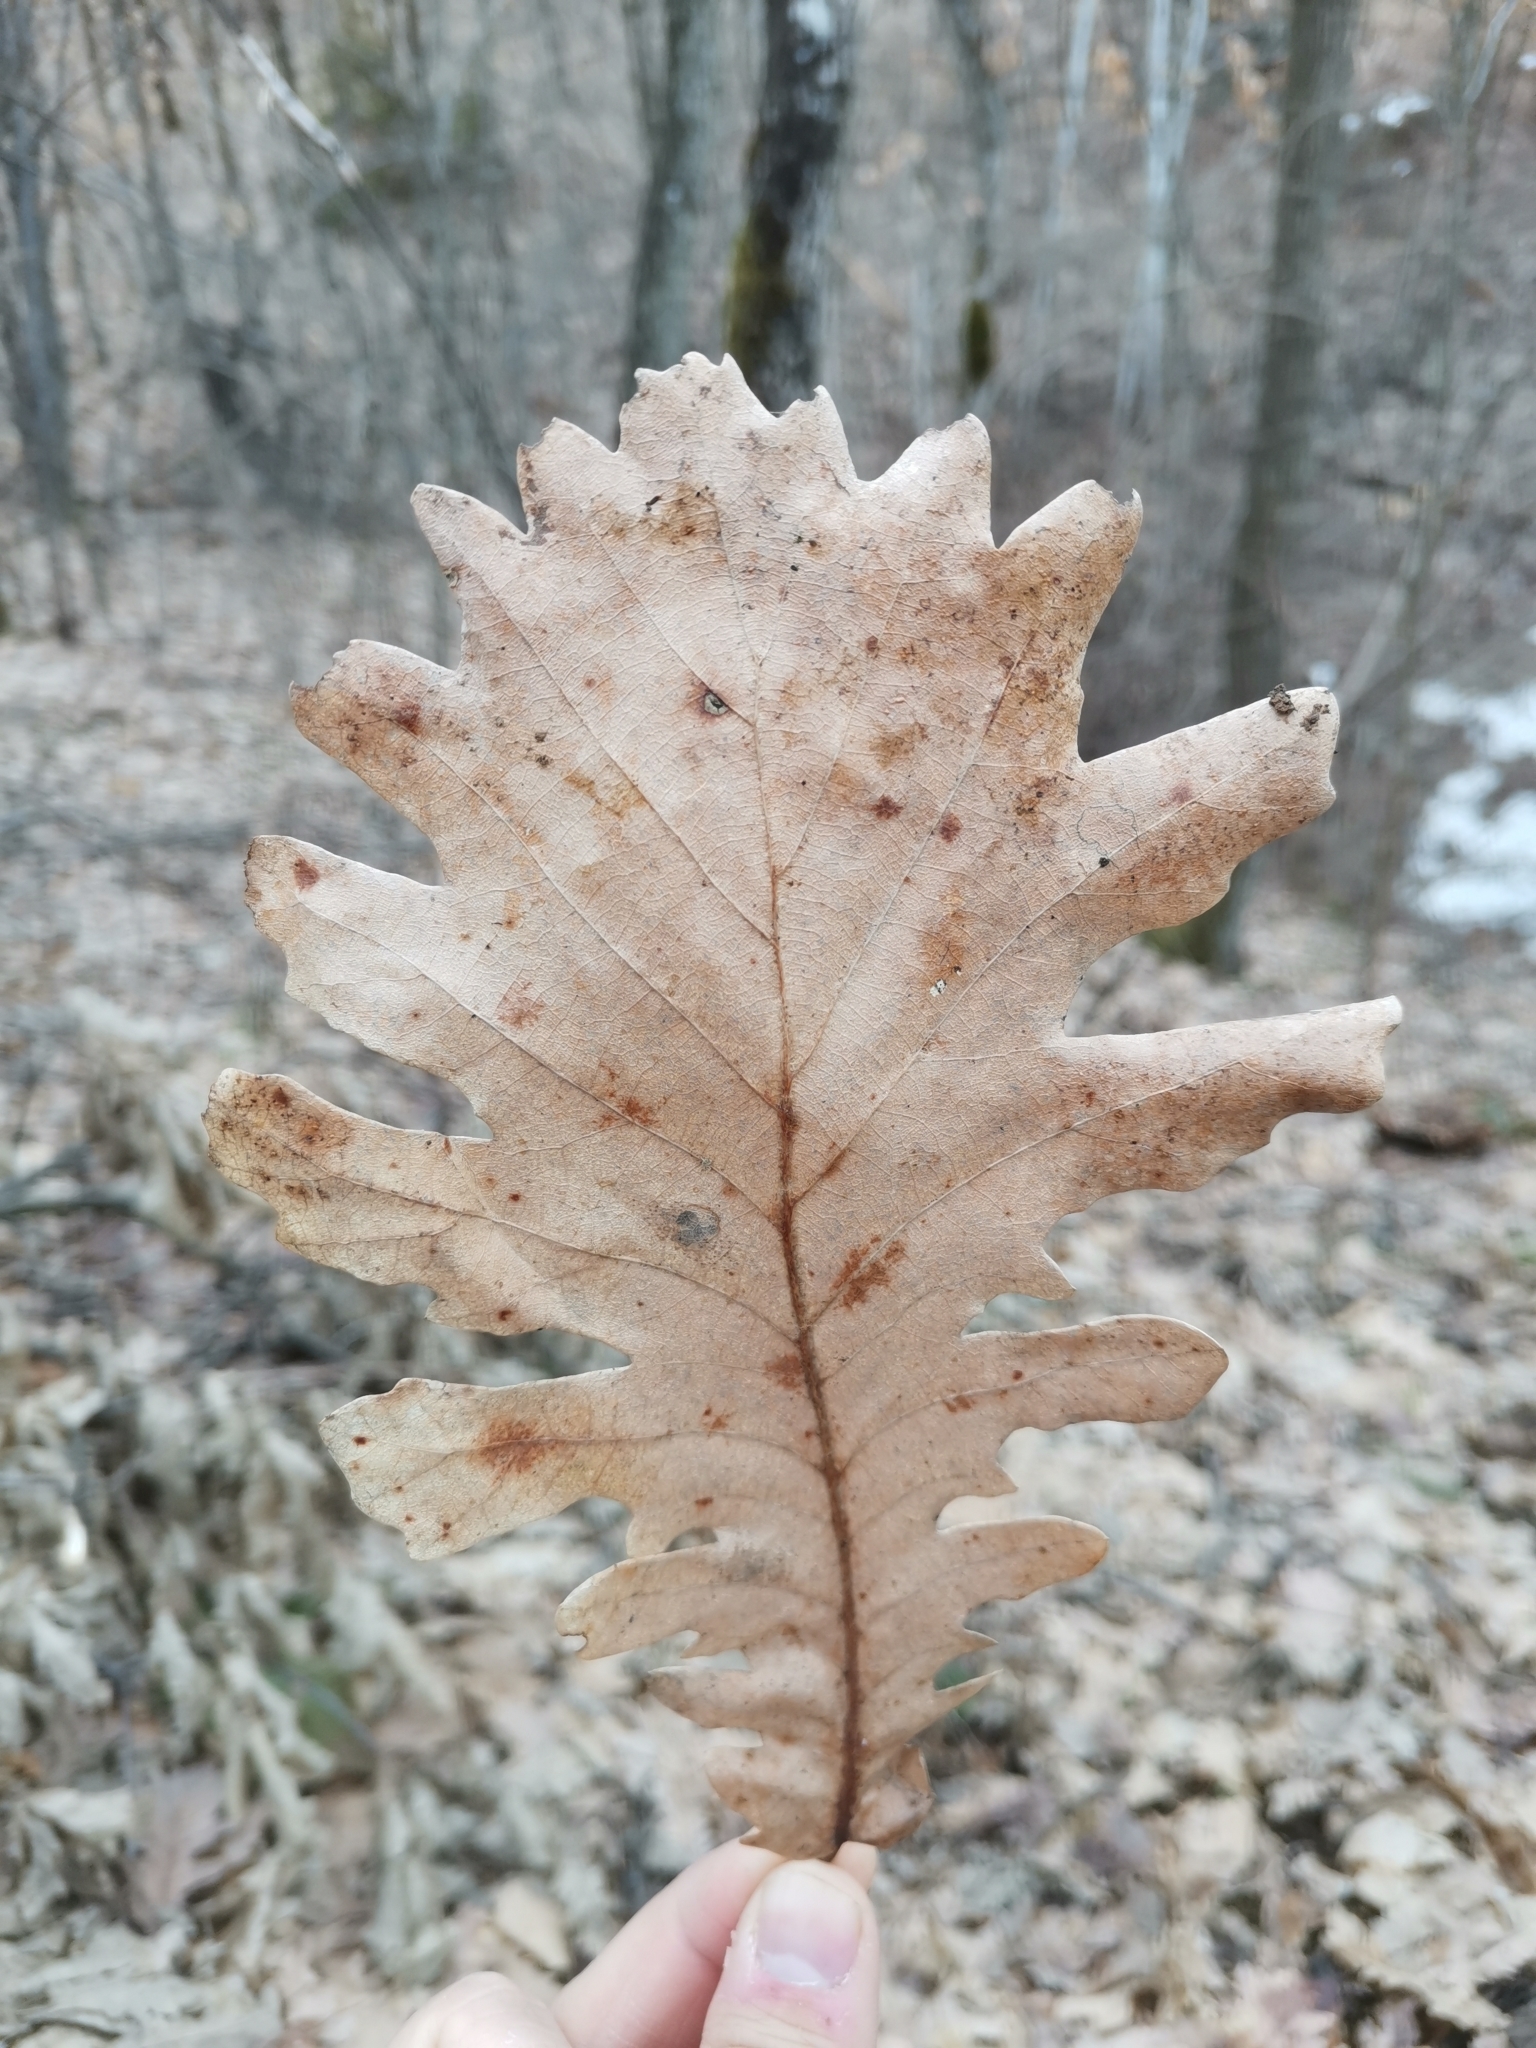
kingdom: Plantae
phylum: Tracheophyta
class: Magnoliopsida
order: Fagales
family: Fagaceae
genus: Quercus
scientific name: Quercus conferta
